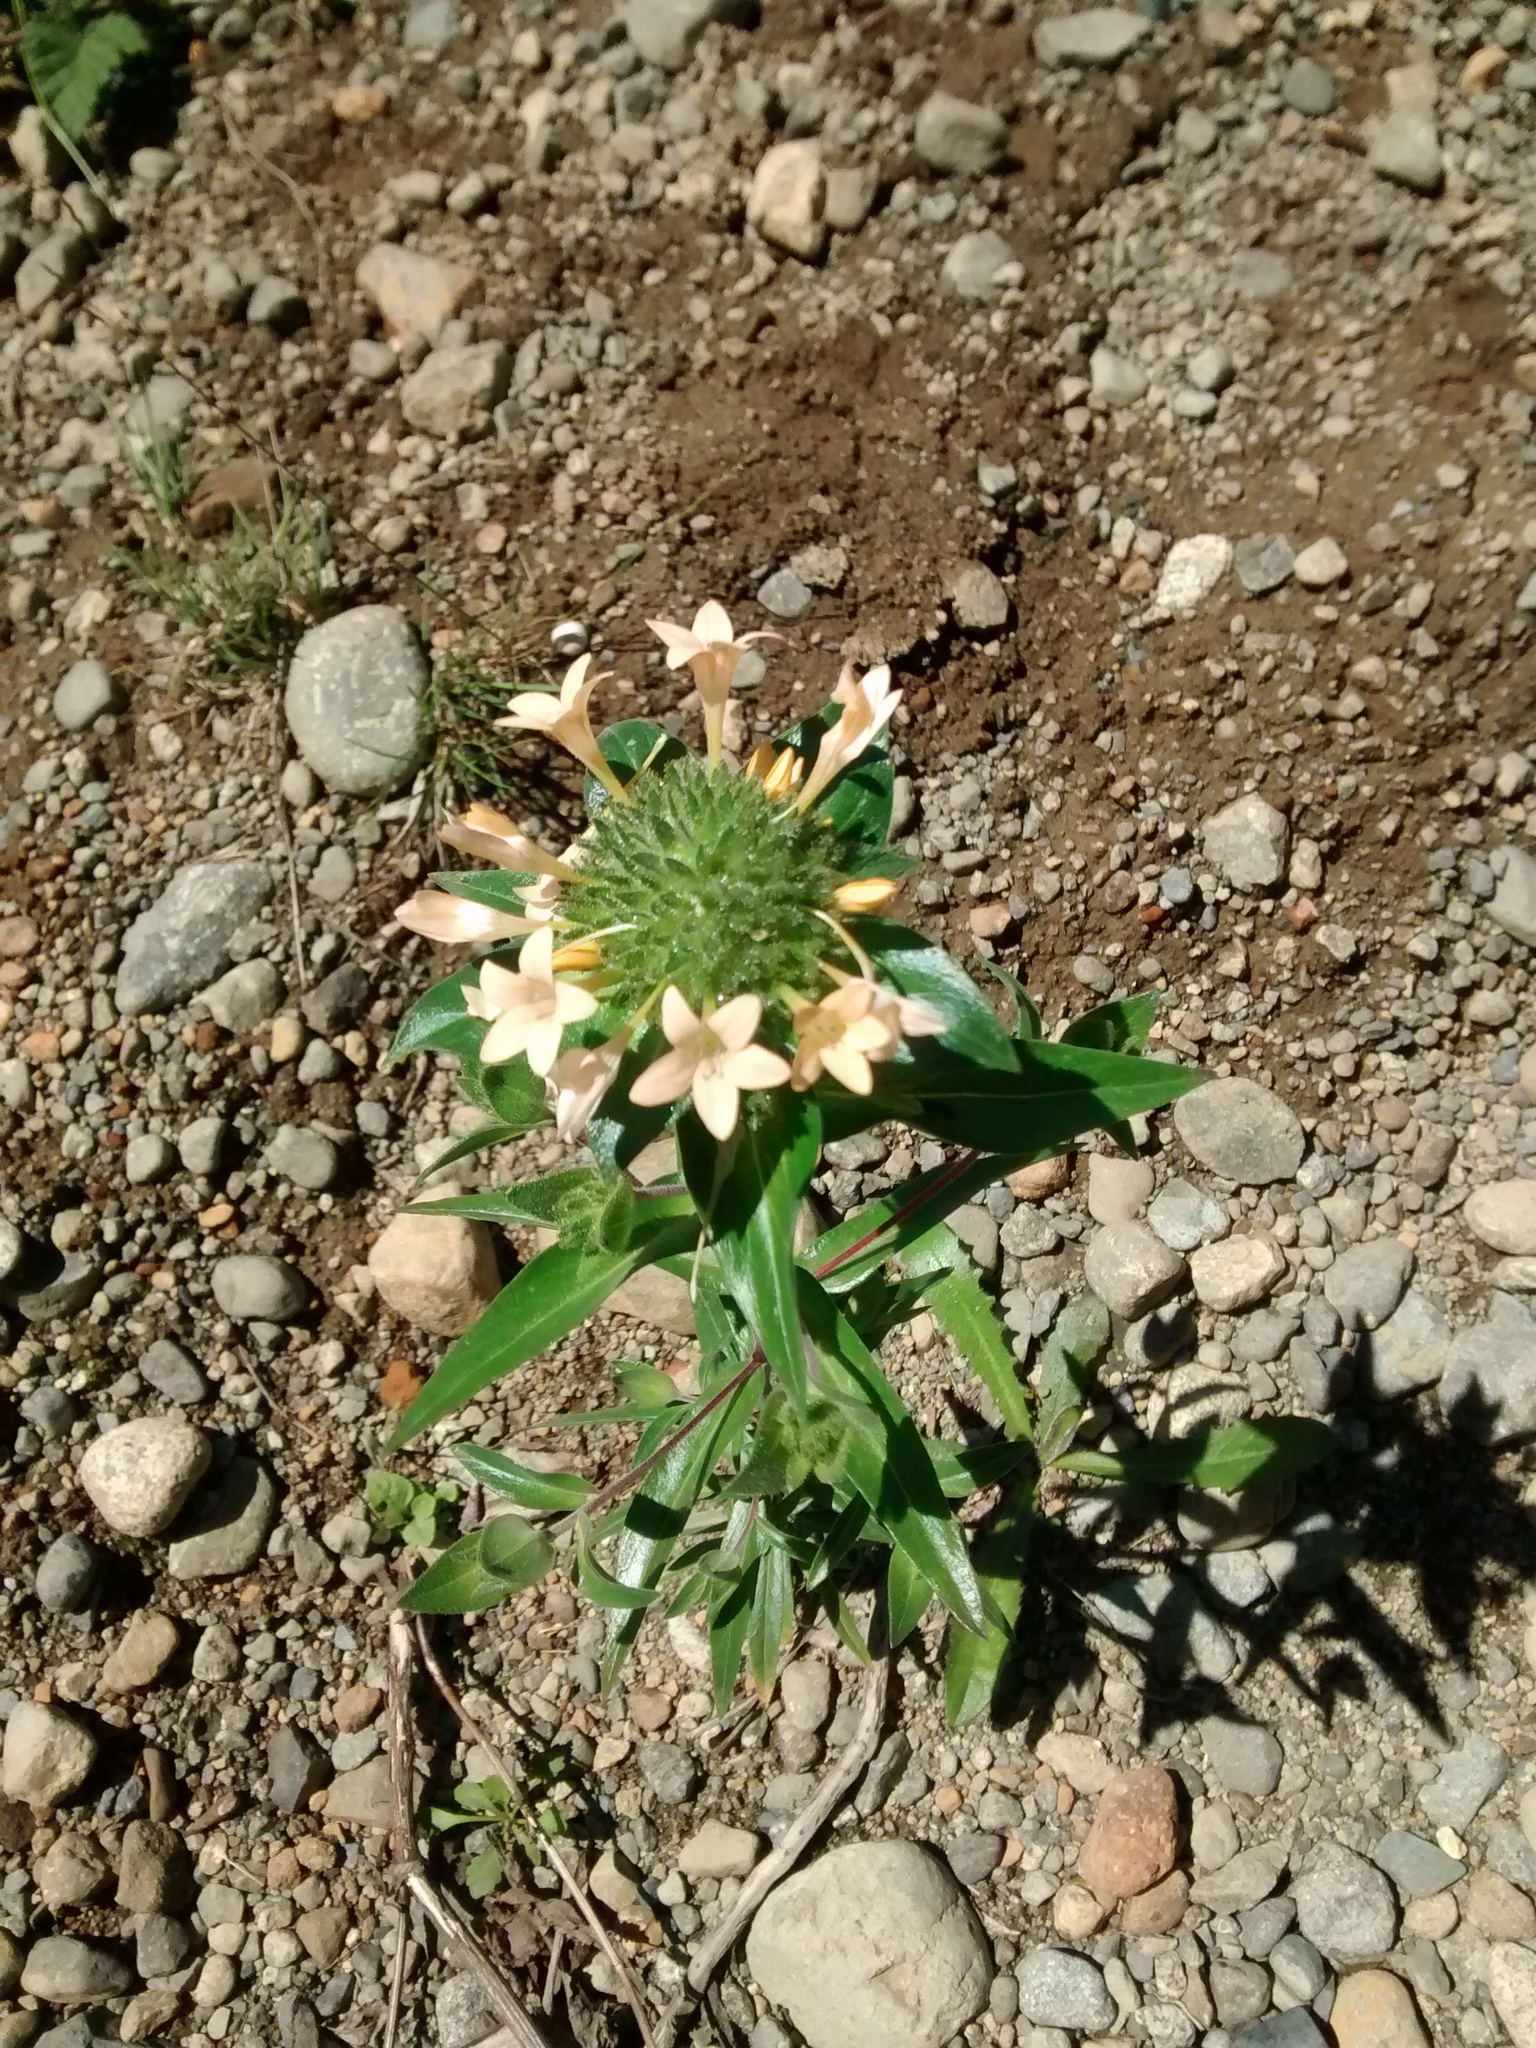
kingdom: Plantae
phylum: Tracheophyta
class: Magnoliopsida
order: Ericales
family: Polemoniaceae
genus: Collomia
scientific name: Collomia grandiflora
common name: California strawflower
